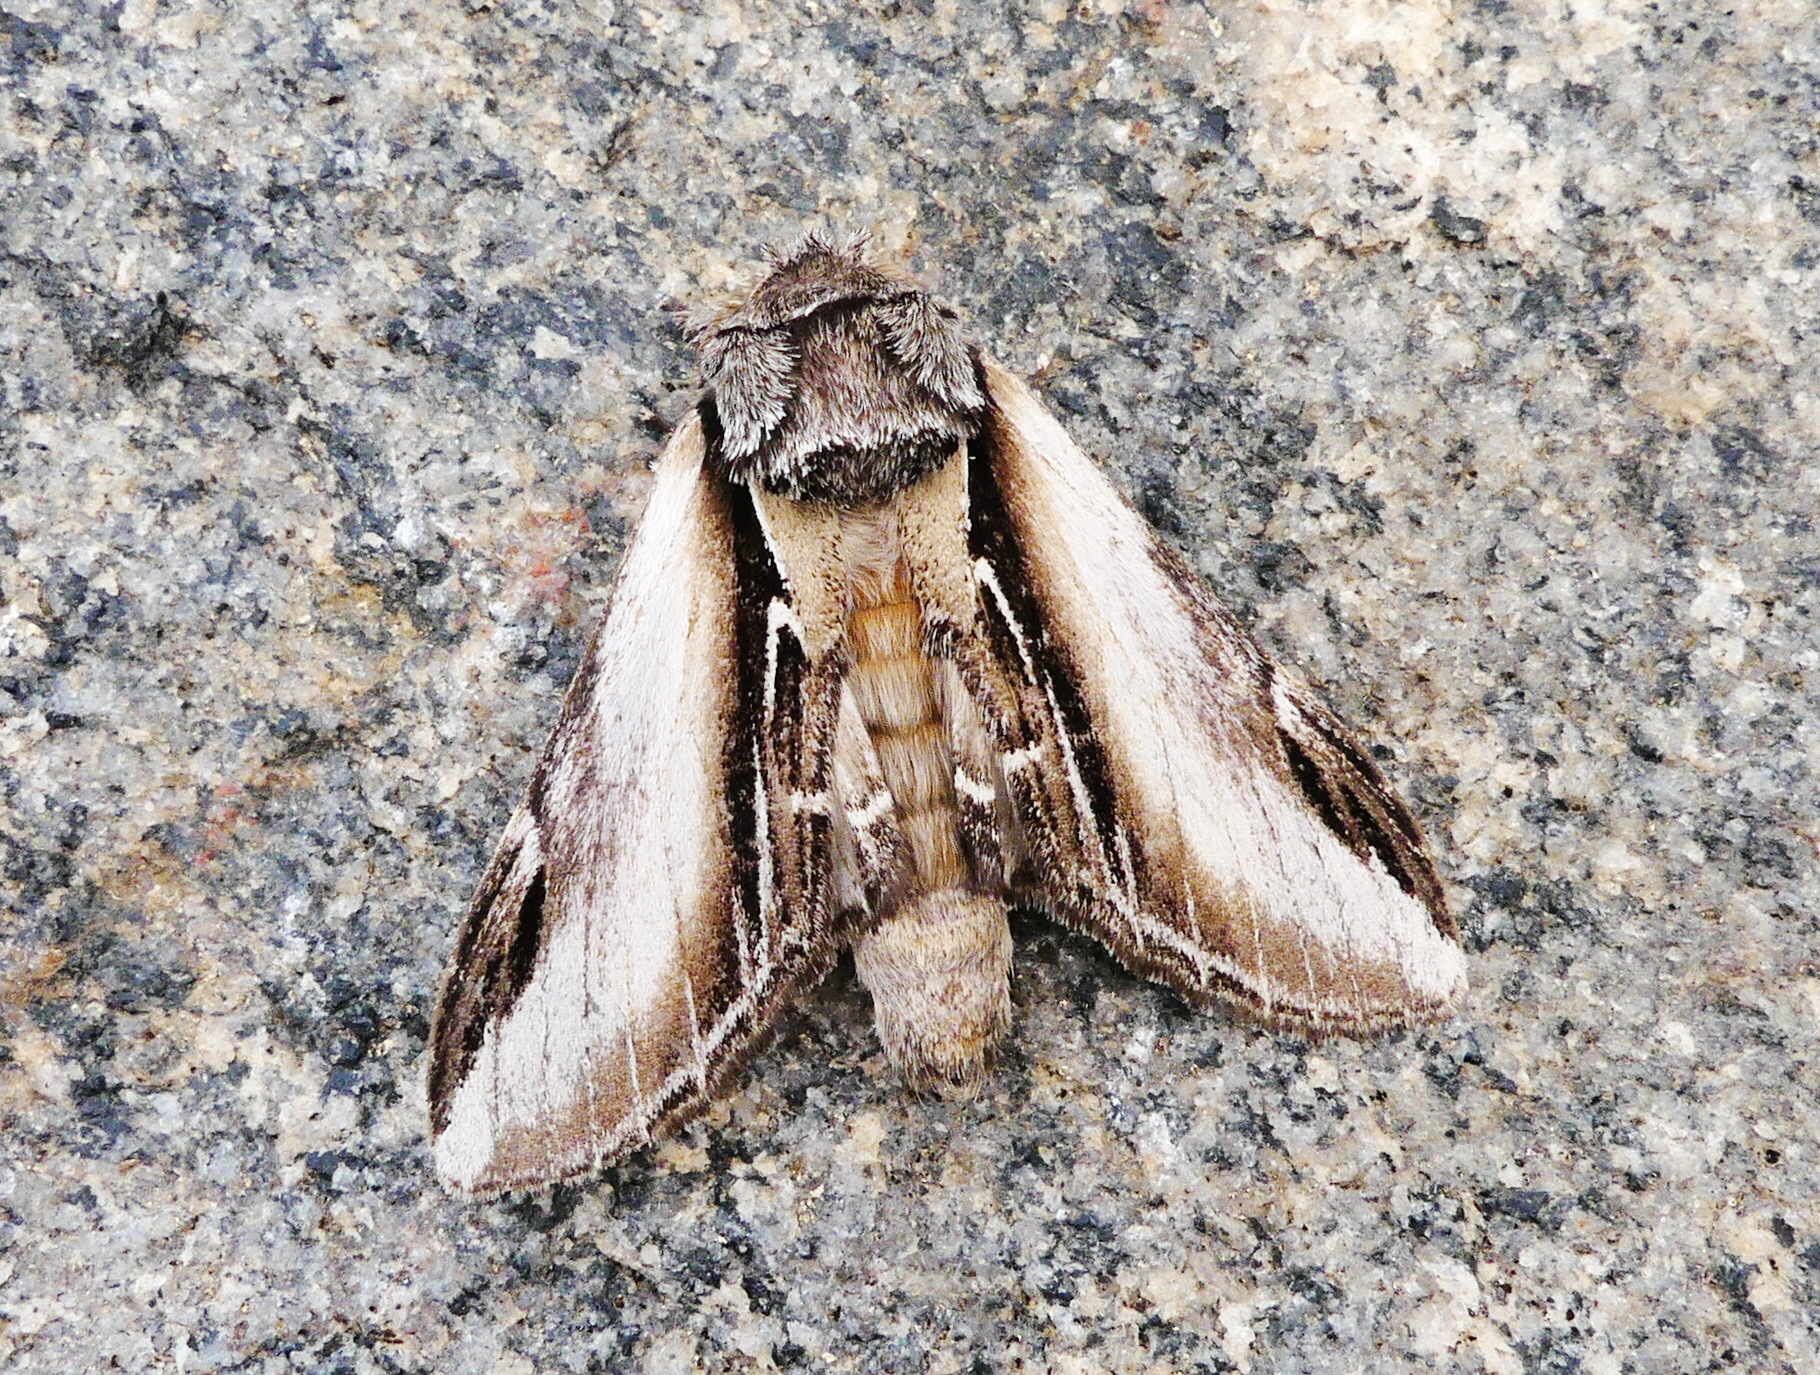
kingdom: Animalia
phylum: Arthropoda
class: Insecta
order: Lepidoptera
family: Notodontidae
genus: Pheosia
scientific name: Pheosia rimosa
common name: Black-rimmed prominent
